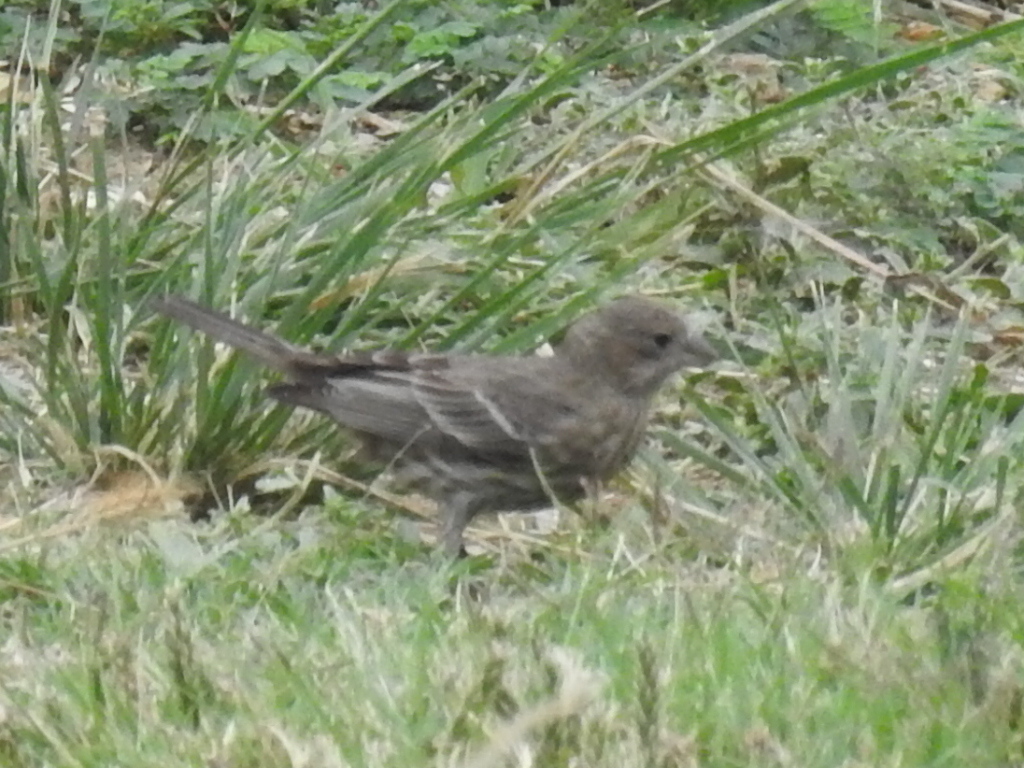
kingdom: Animalia
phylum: Chordata
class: Aves
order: Passeriformes
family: Fringillidae
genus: Haemorhous
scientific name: Haemorhous mexicanus
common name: House finch
